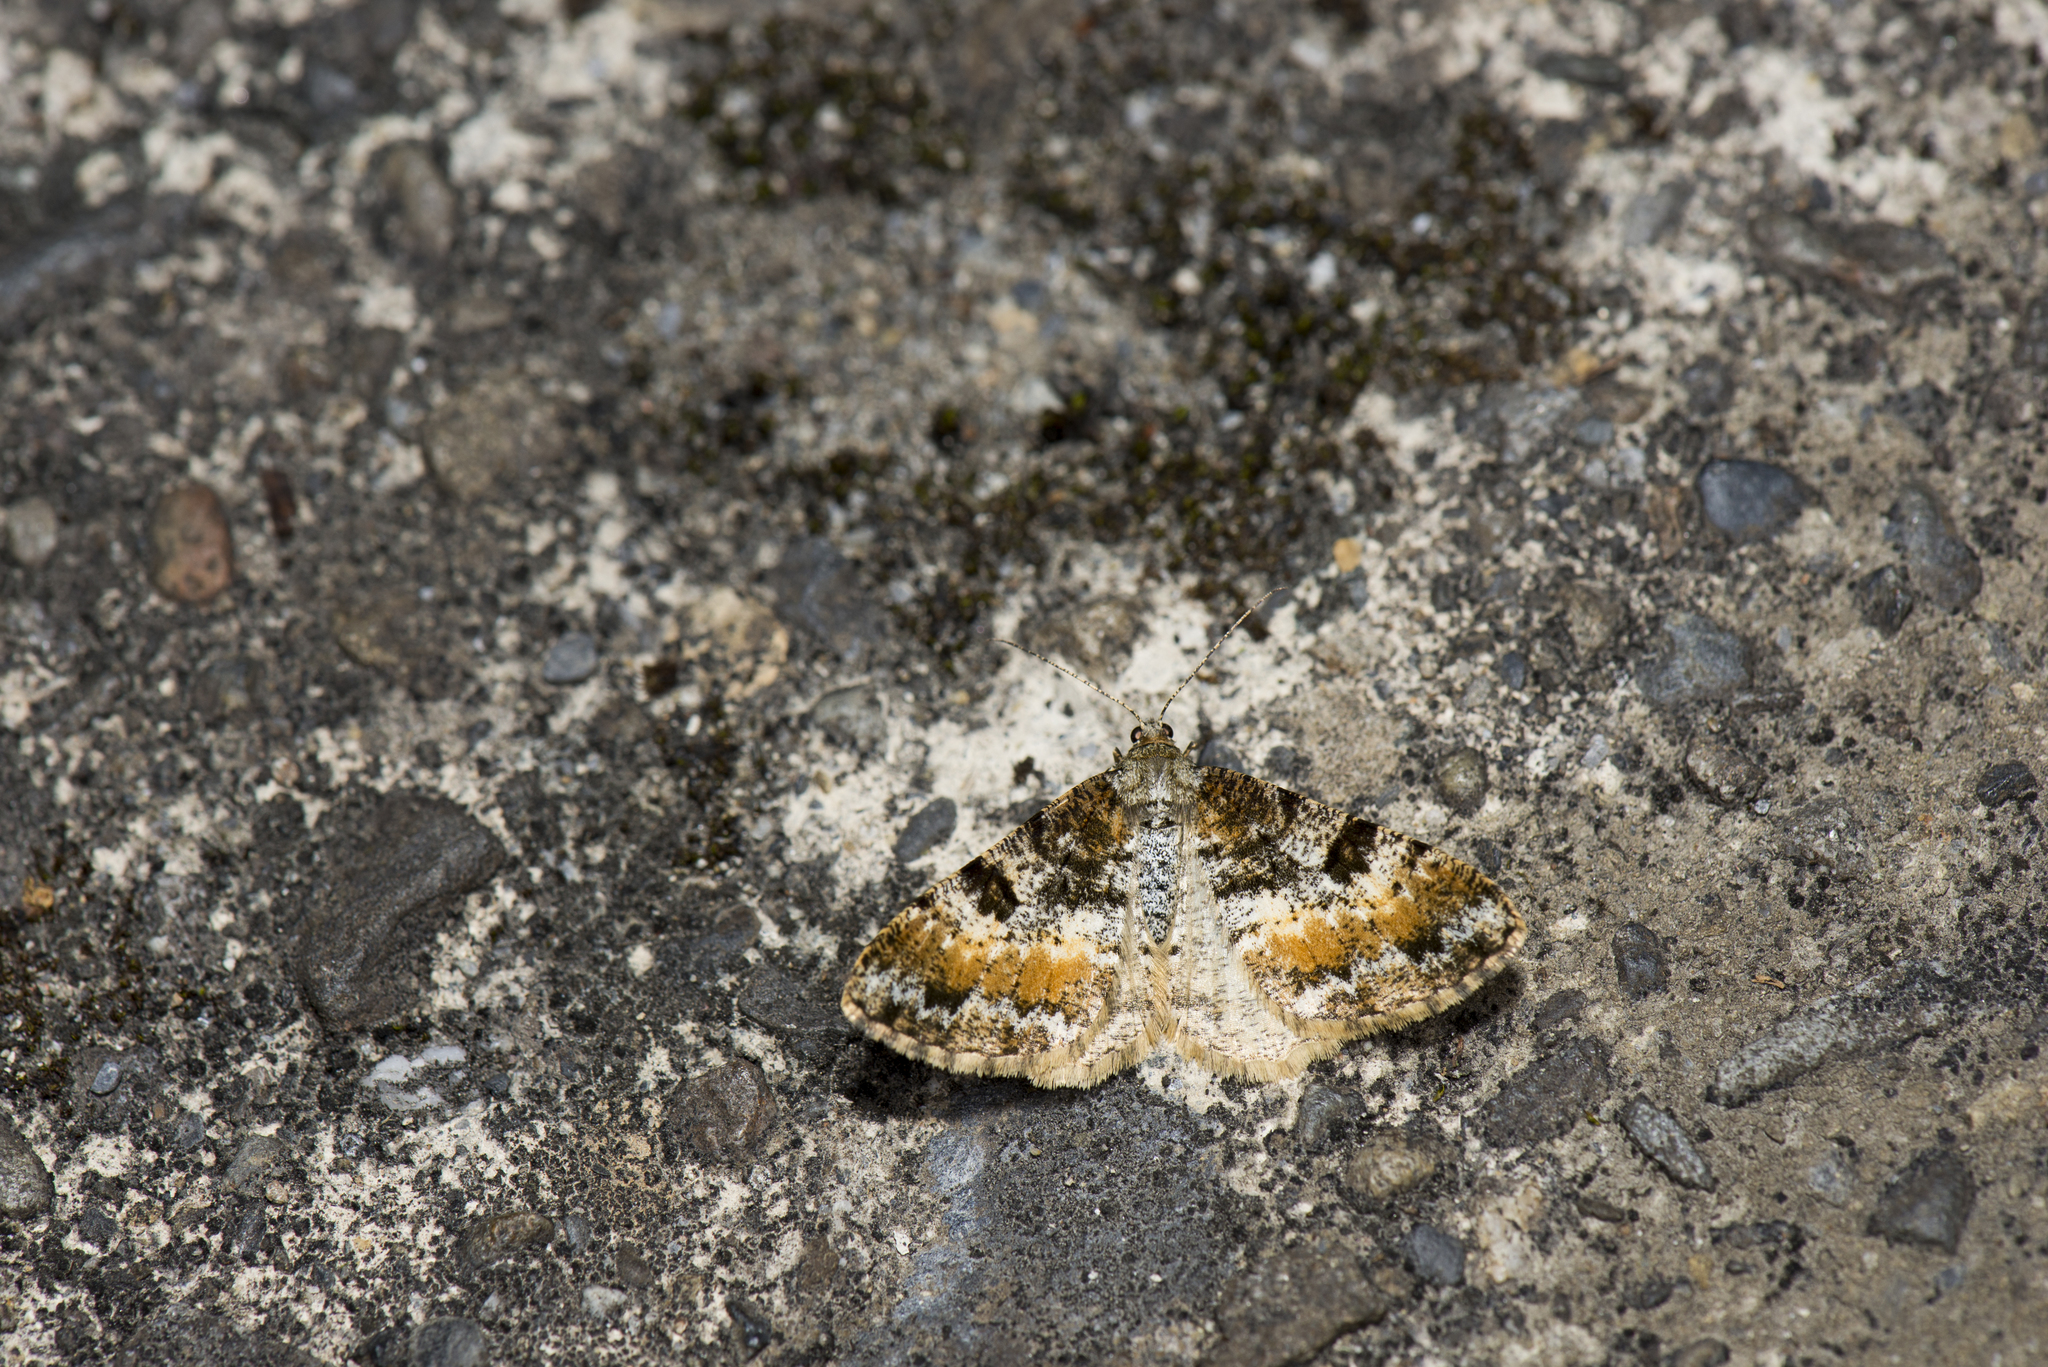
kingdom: Animalia
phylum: Arthropoda
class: Insecta
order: Lepidoptera
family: Geometridae
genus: Alcis
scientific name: Alcis scortea
